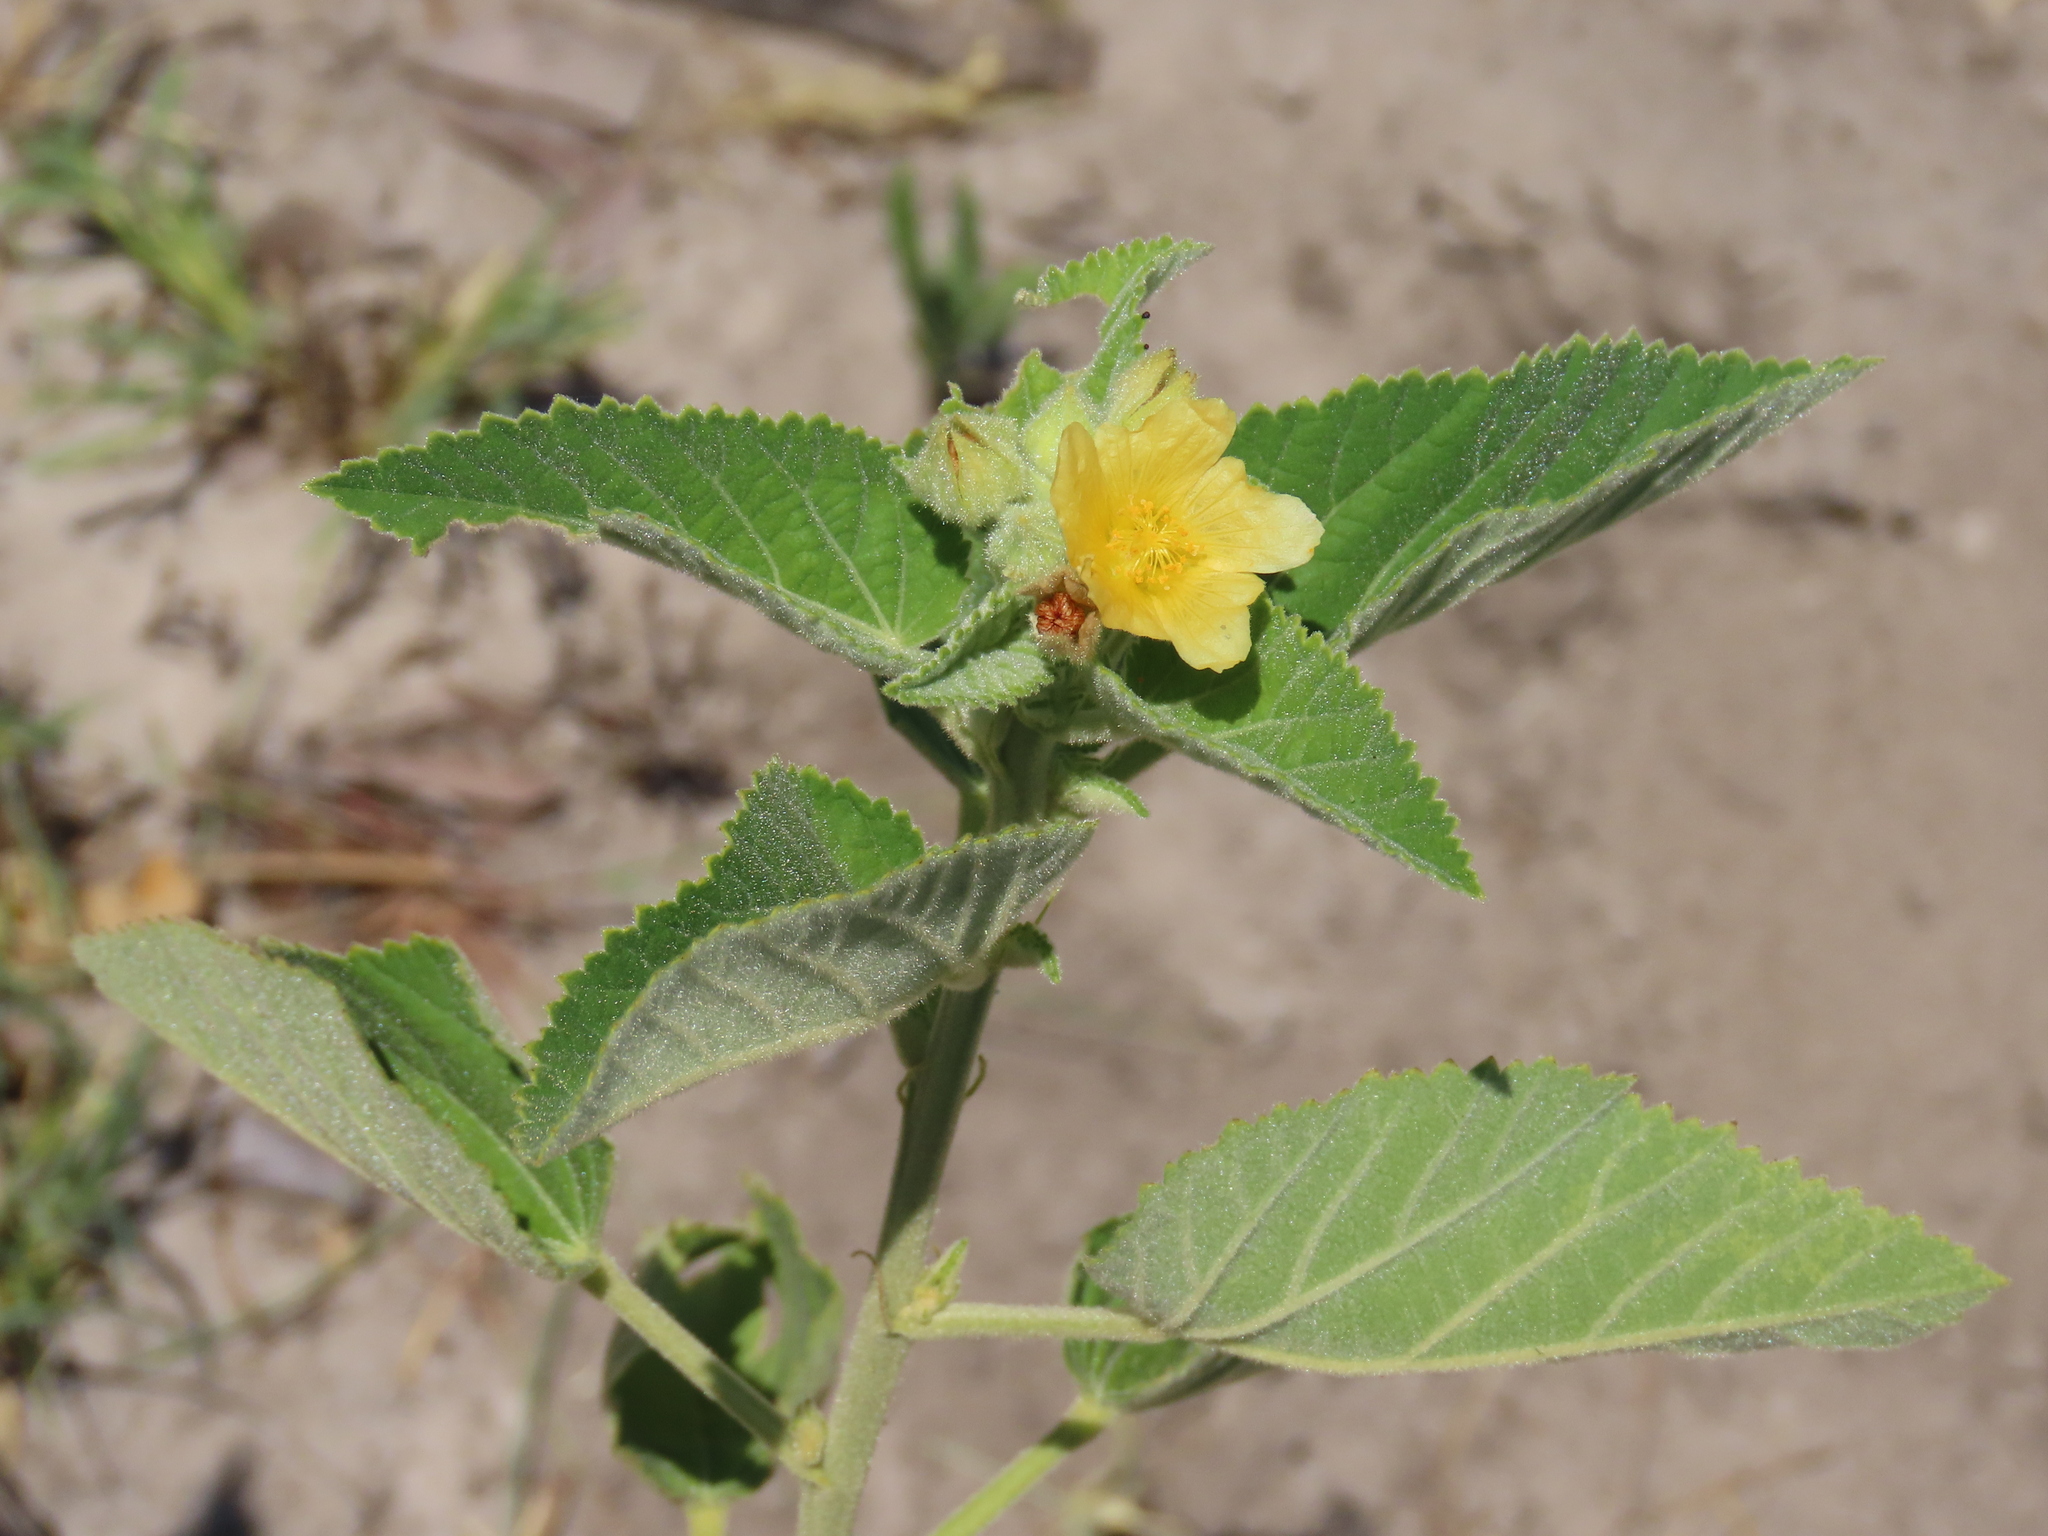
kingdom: Plantae
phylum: Tracheophyta
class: Magnoliopsida
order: Malvales
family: Malvaceae
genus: Sida
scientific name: Sida cordifolia
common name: Ilima
